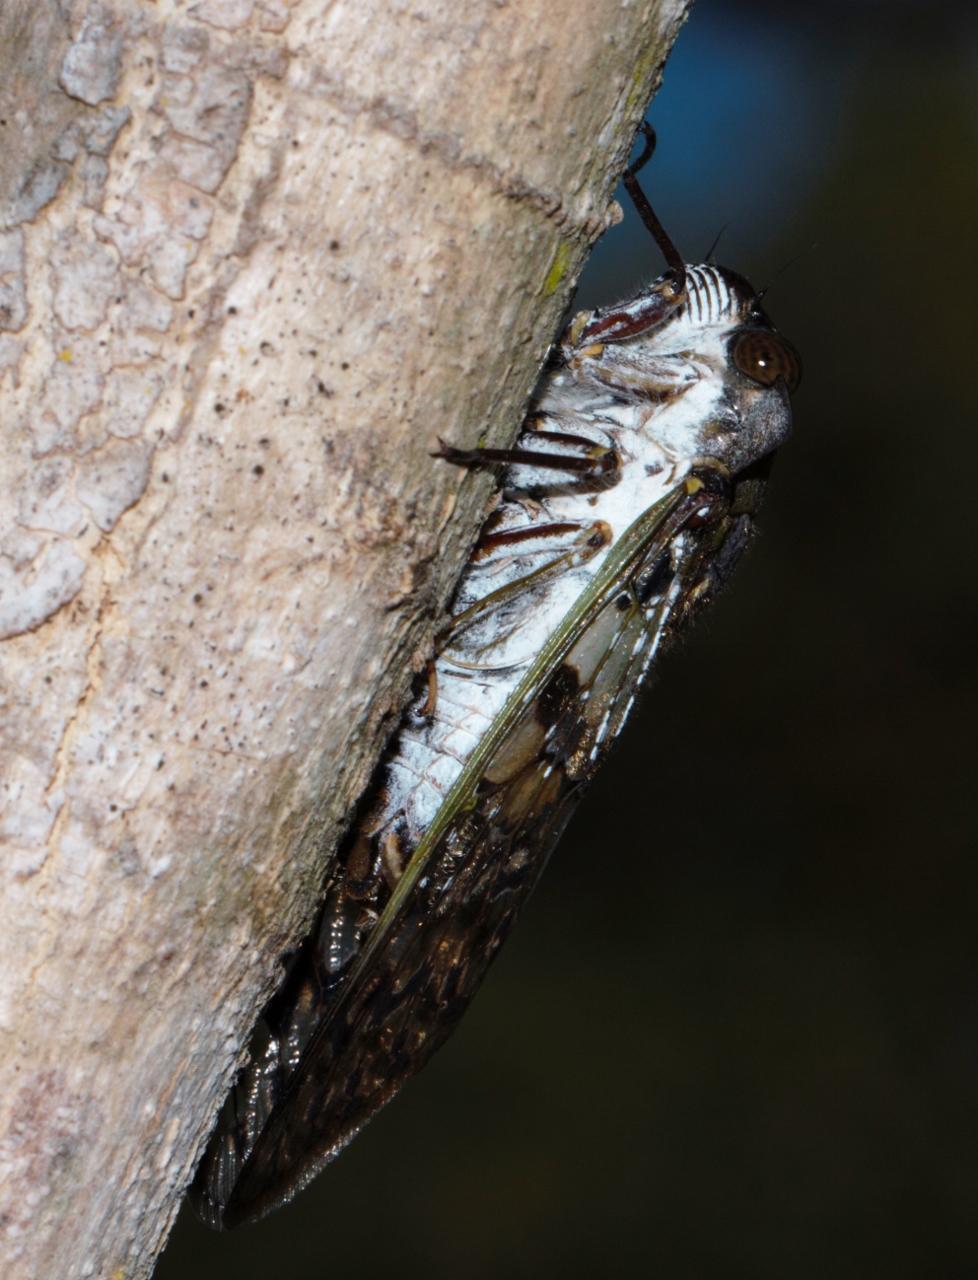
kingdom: Animalia
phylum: Arthropoda
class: Insecta
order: Hemiptera
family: Cicadidae
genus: Ioba
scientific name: Ioba leopardina
